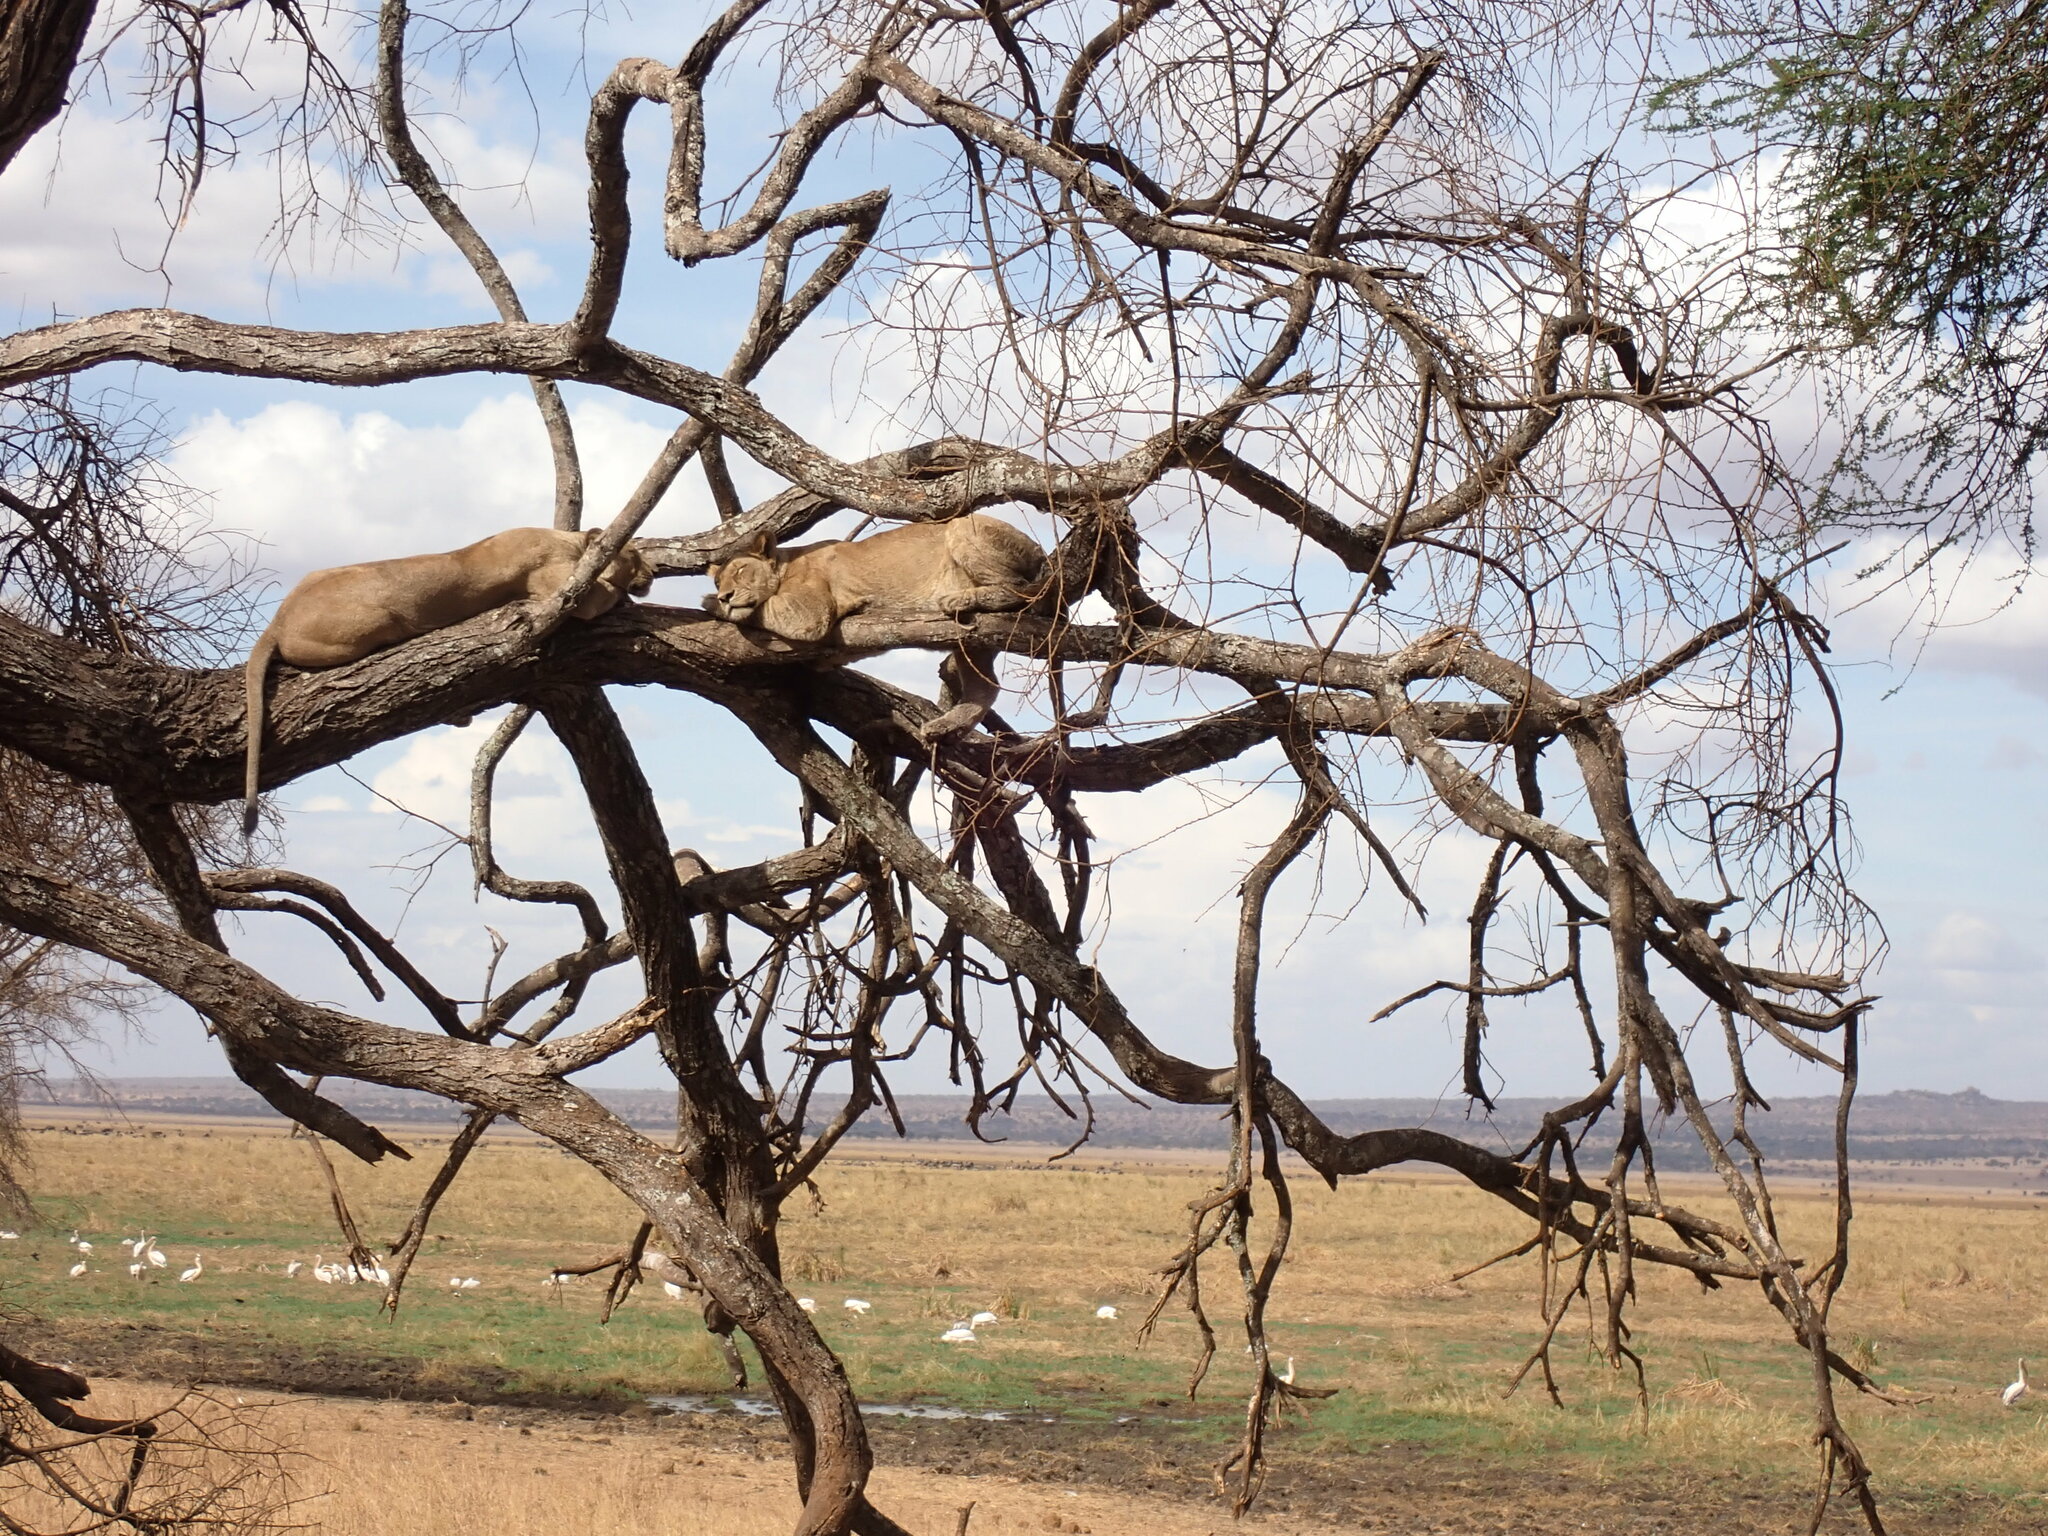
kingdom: Animalia
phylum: Chordata
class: Mammalia
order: Carnivora
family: Felidae
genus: Panthera
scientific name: Panthera leo
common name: Lion
